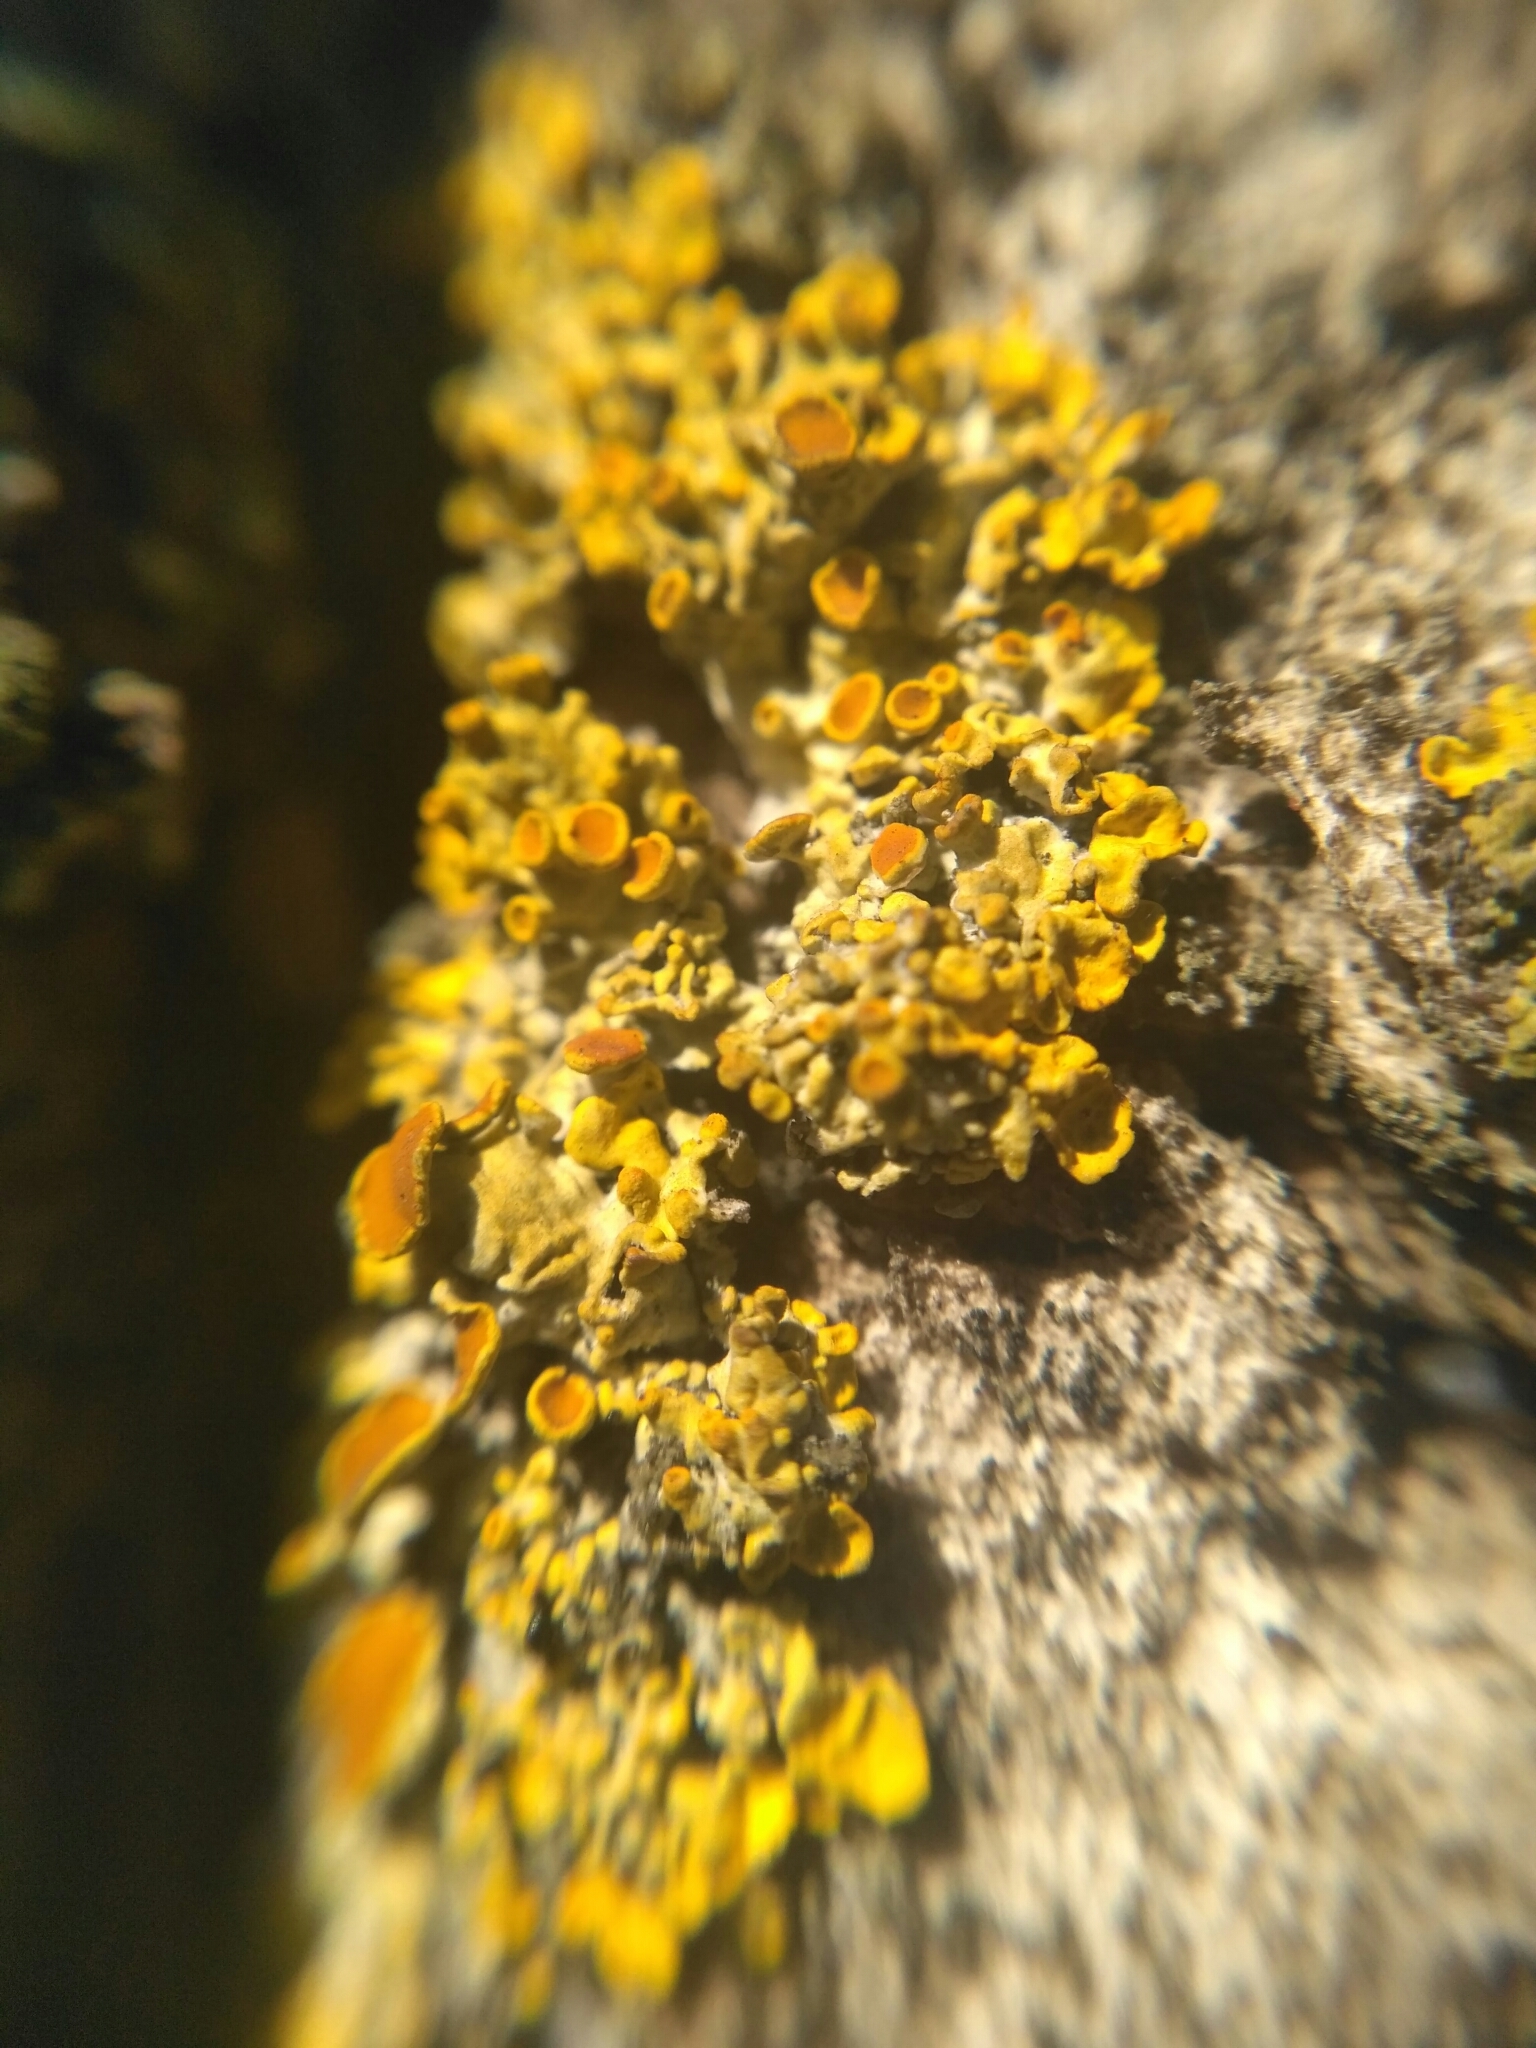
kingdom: Fungi
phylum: Ascomycota
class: Lecanoromycetes
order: Teloschistales
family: Teloschistaceae
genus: Xanthoria
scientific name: Xanthoria parietina
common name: Common orange lichen
